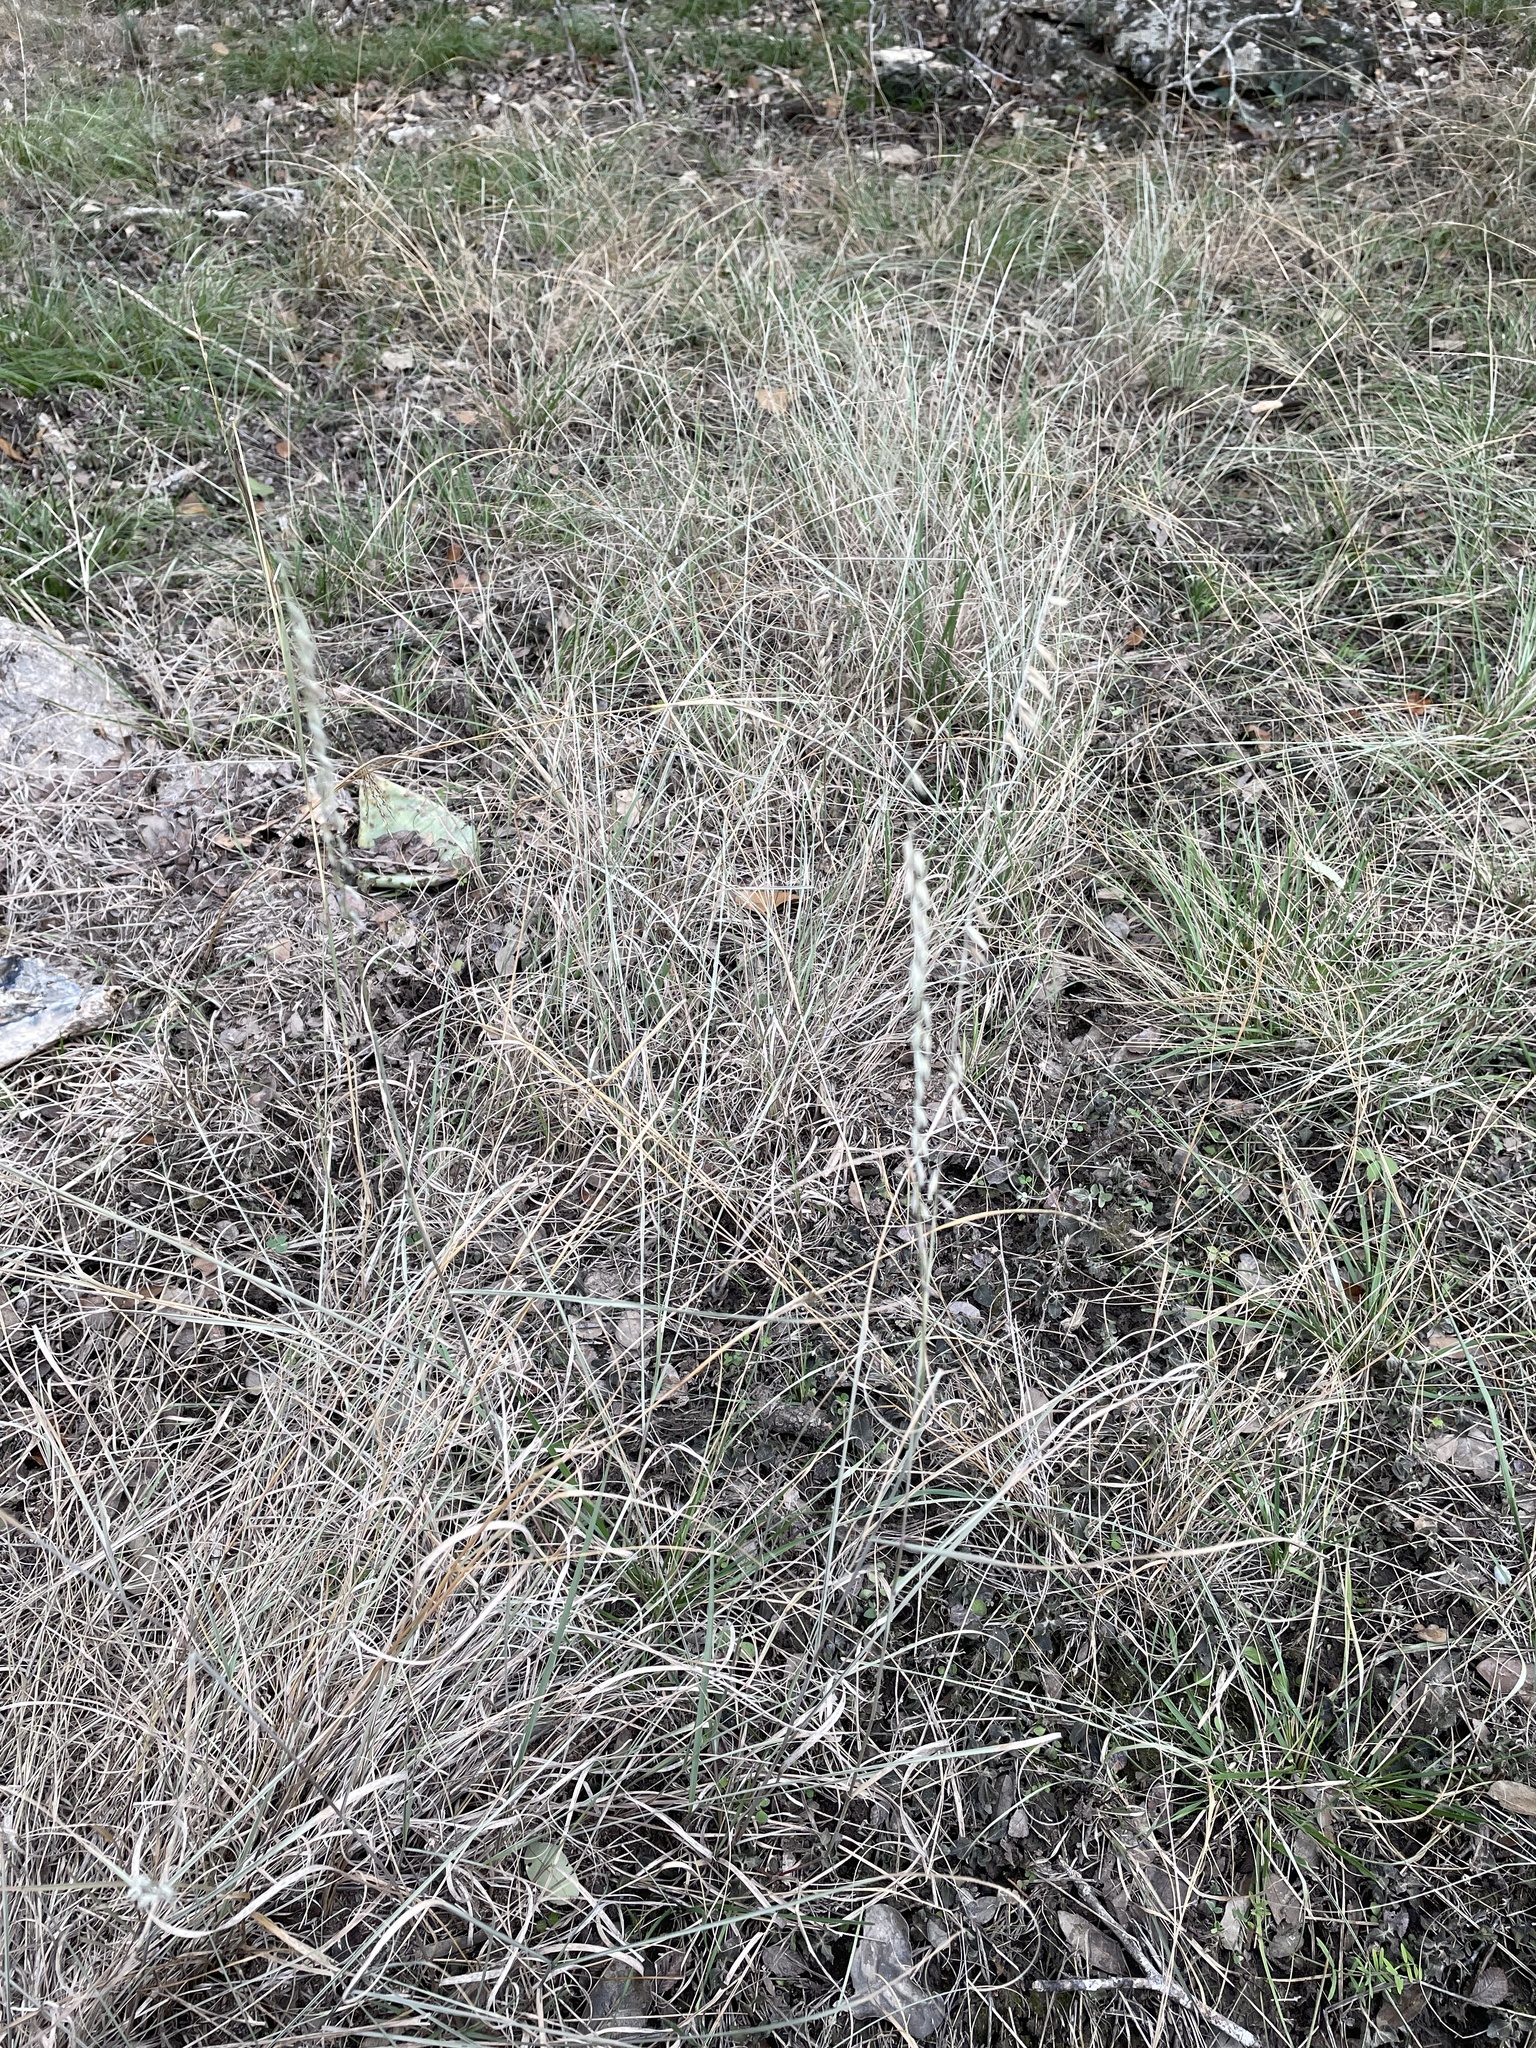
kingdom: Plantae
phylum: Tracheophyta
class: Liliopsida
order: Poales
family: Poaceae
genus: Bouteloua
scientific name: Bouteloua curtipendula
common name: Side-oats grama
